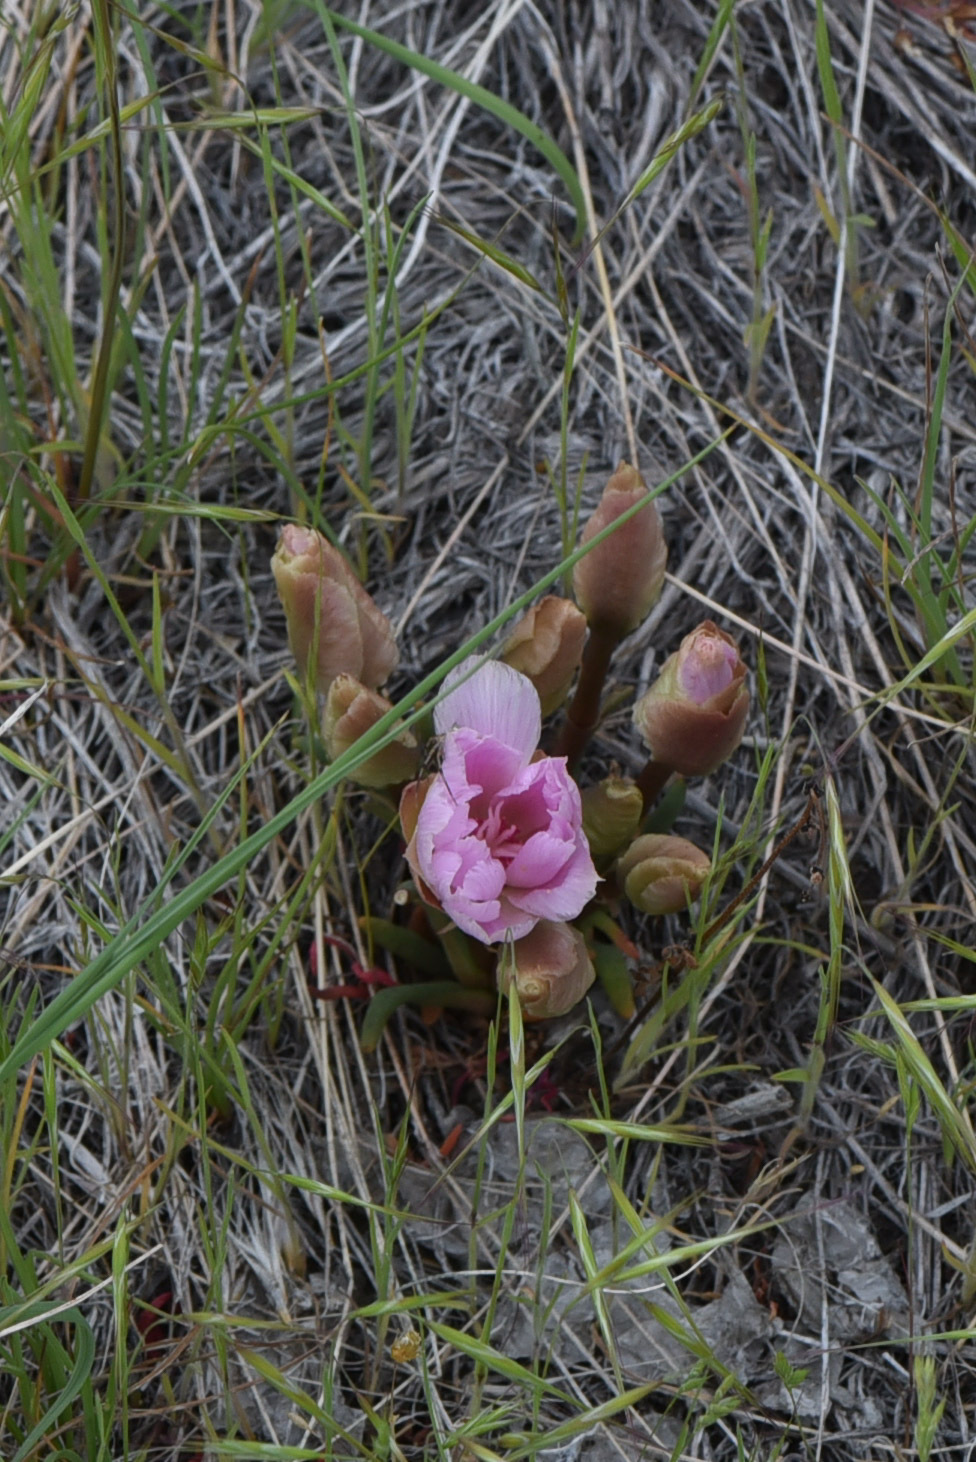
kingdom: Plantae
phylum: Tracheophyta
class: Magnoliopsida
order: Caryophyllales
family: Montiaceae
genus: Lewisia
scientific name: Lewisia rediviva
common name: Bitter-root
